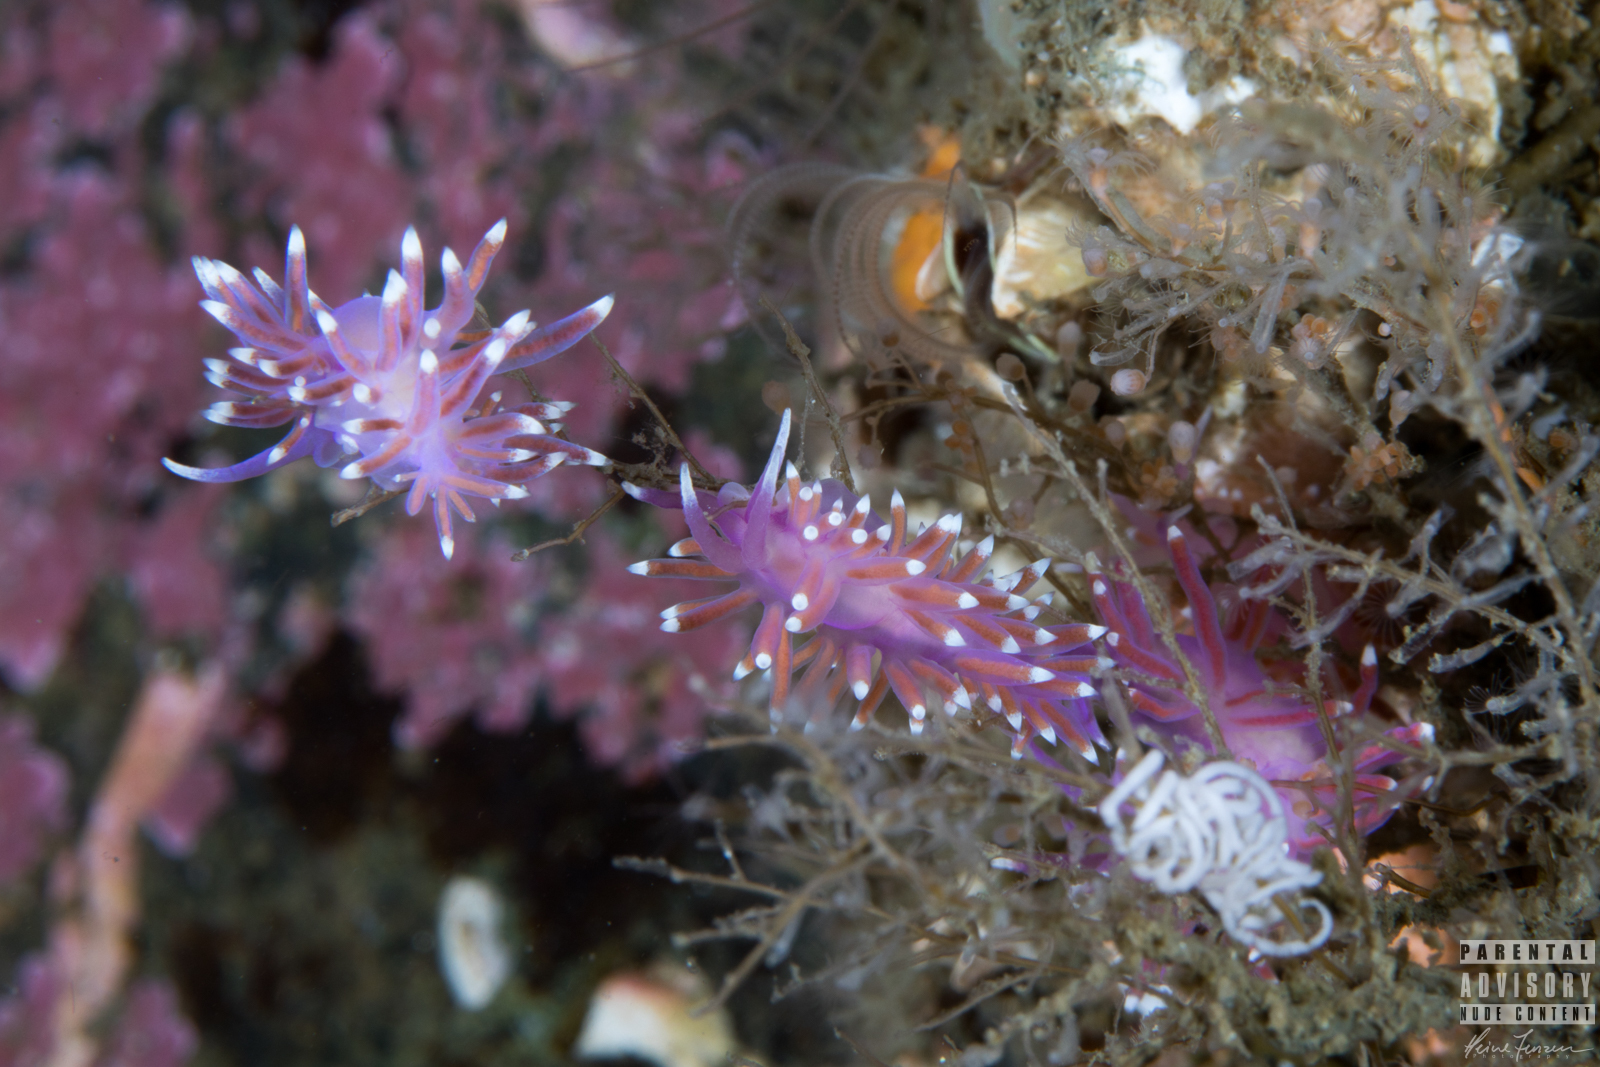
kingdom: Animalia
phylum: Mollusca
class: Gastropoda
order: Nudibranchia
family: Flabellinidae
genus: Edmundsella
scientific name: Edmundsella pedata
